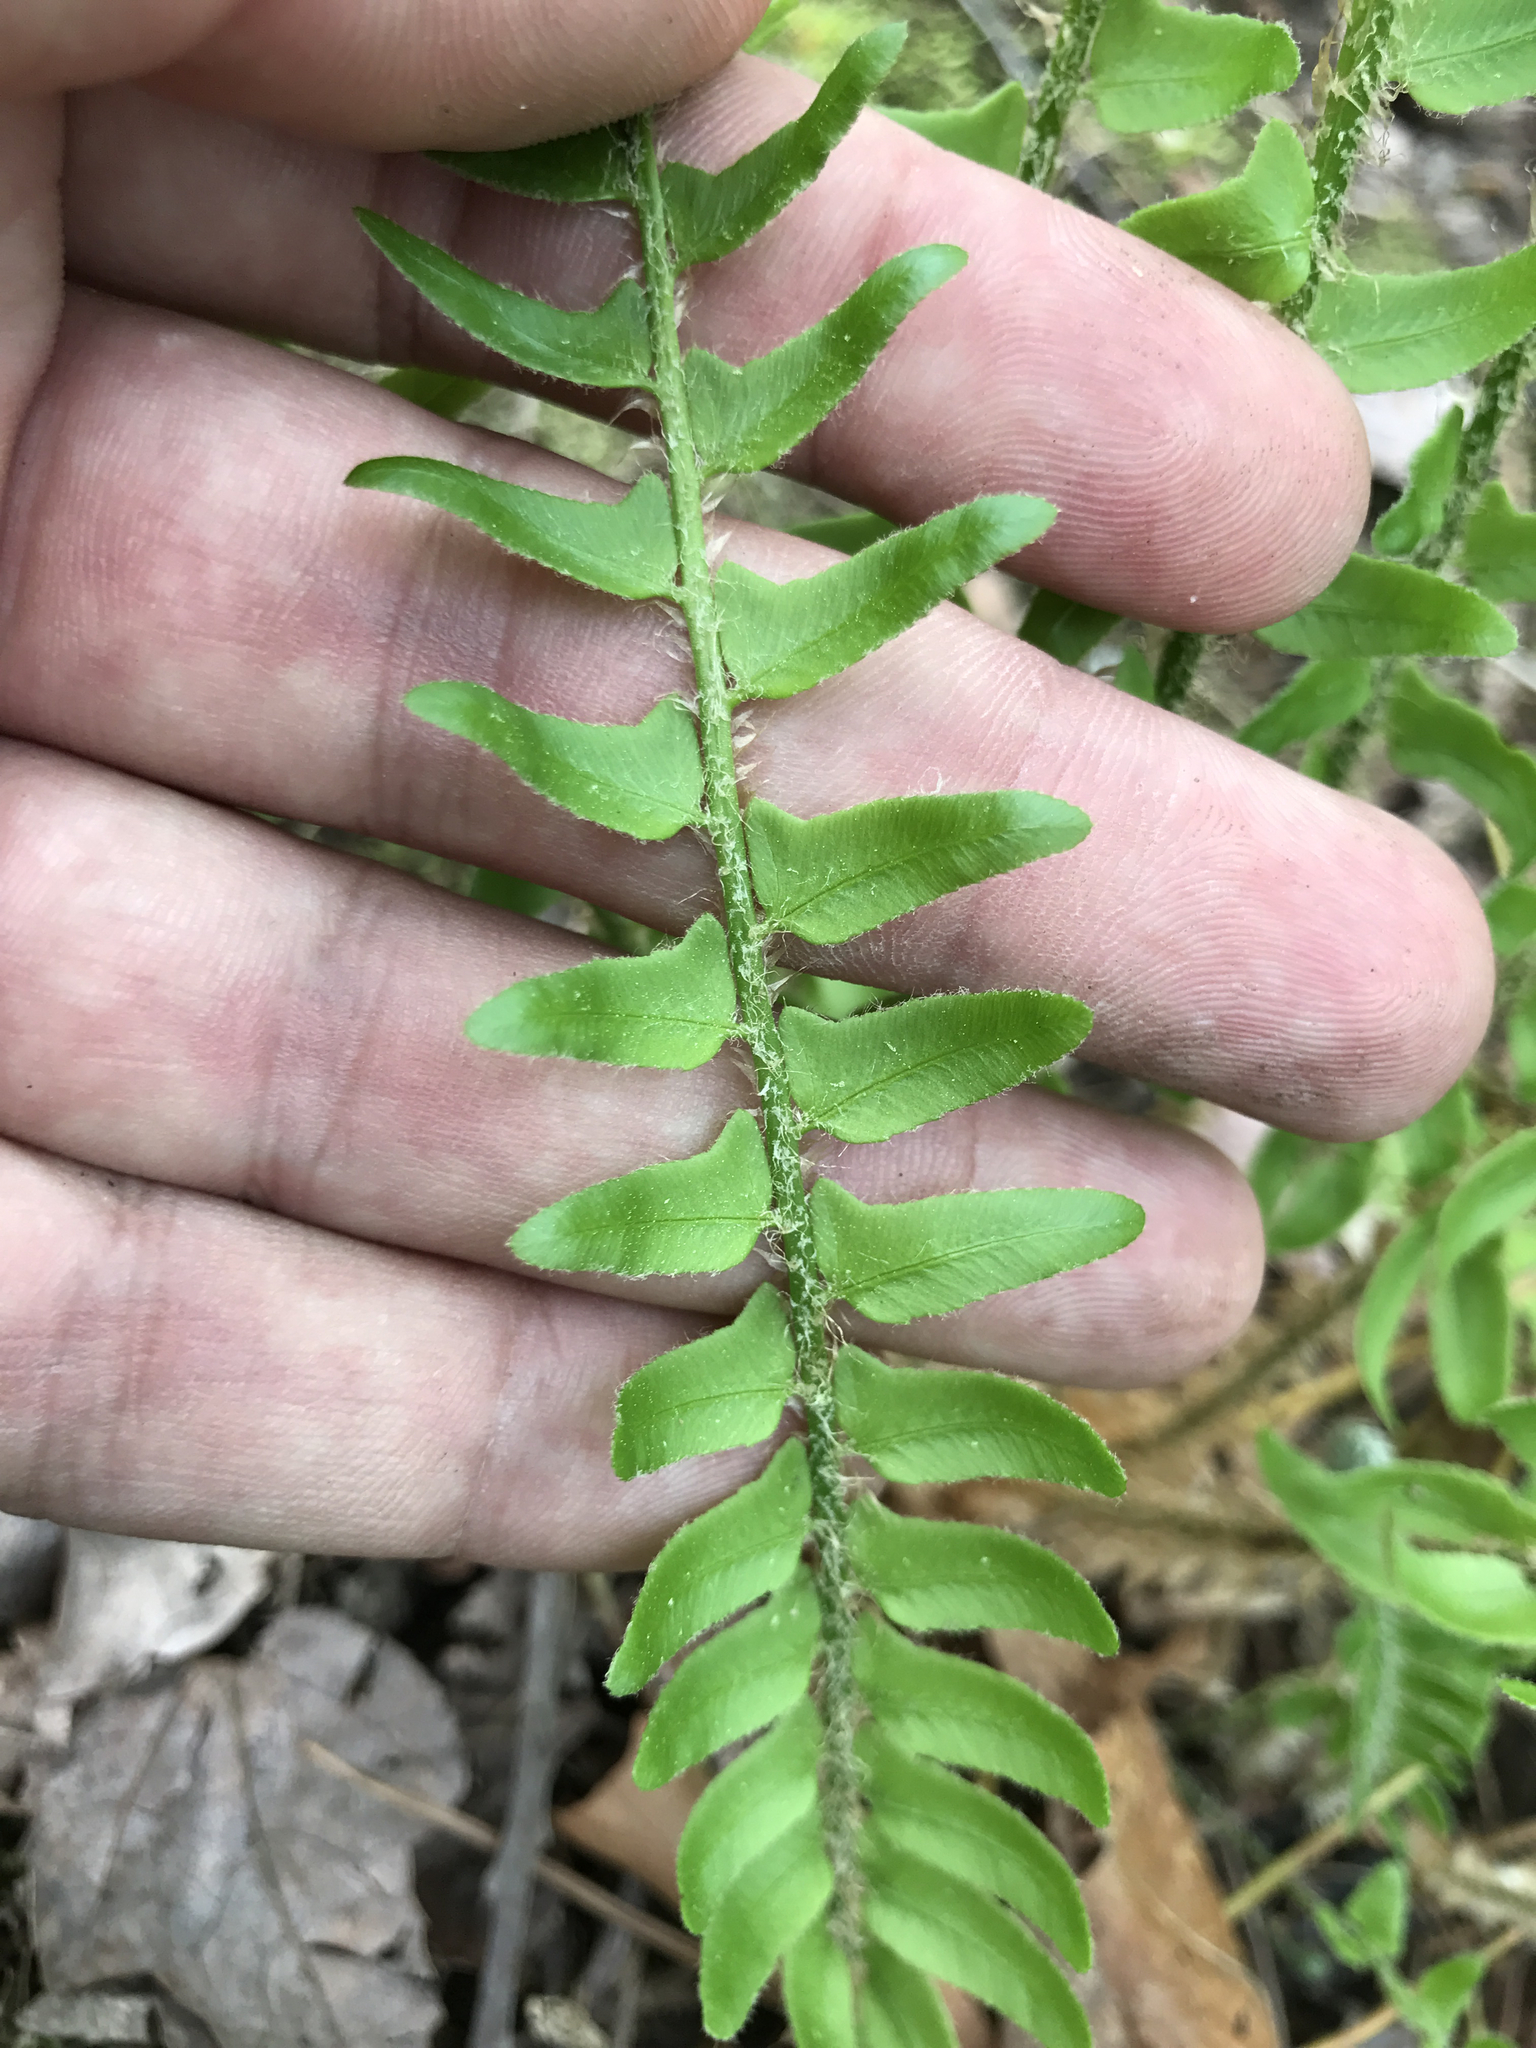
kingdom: Plantae
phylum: Tracheophyta
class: Polypodiopsida
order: Polypodiales
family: Dryopteridaceae
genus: Polystichum
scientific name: Polystichum acrostichoides
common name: Christmas fern
